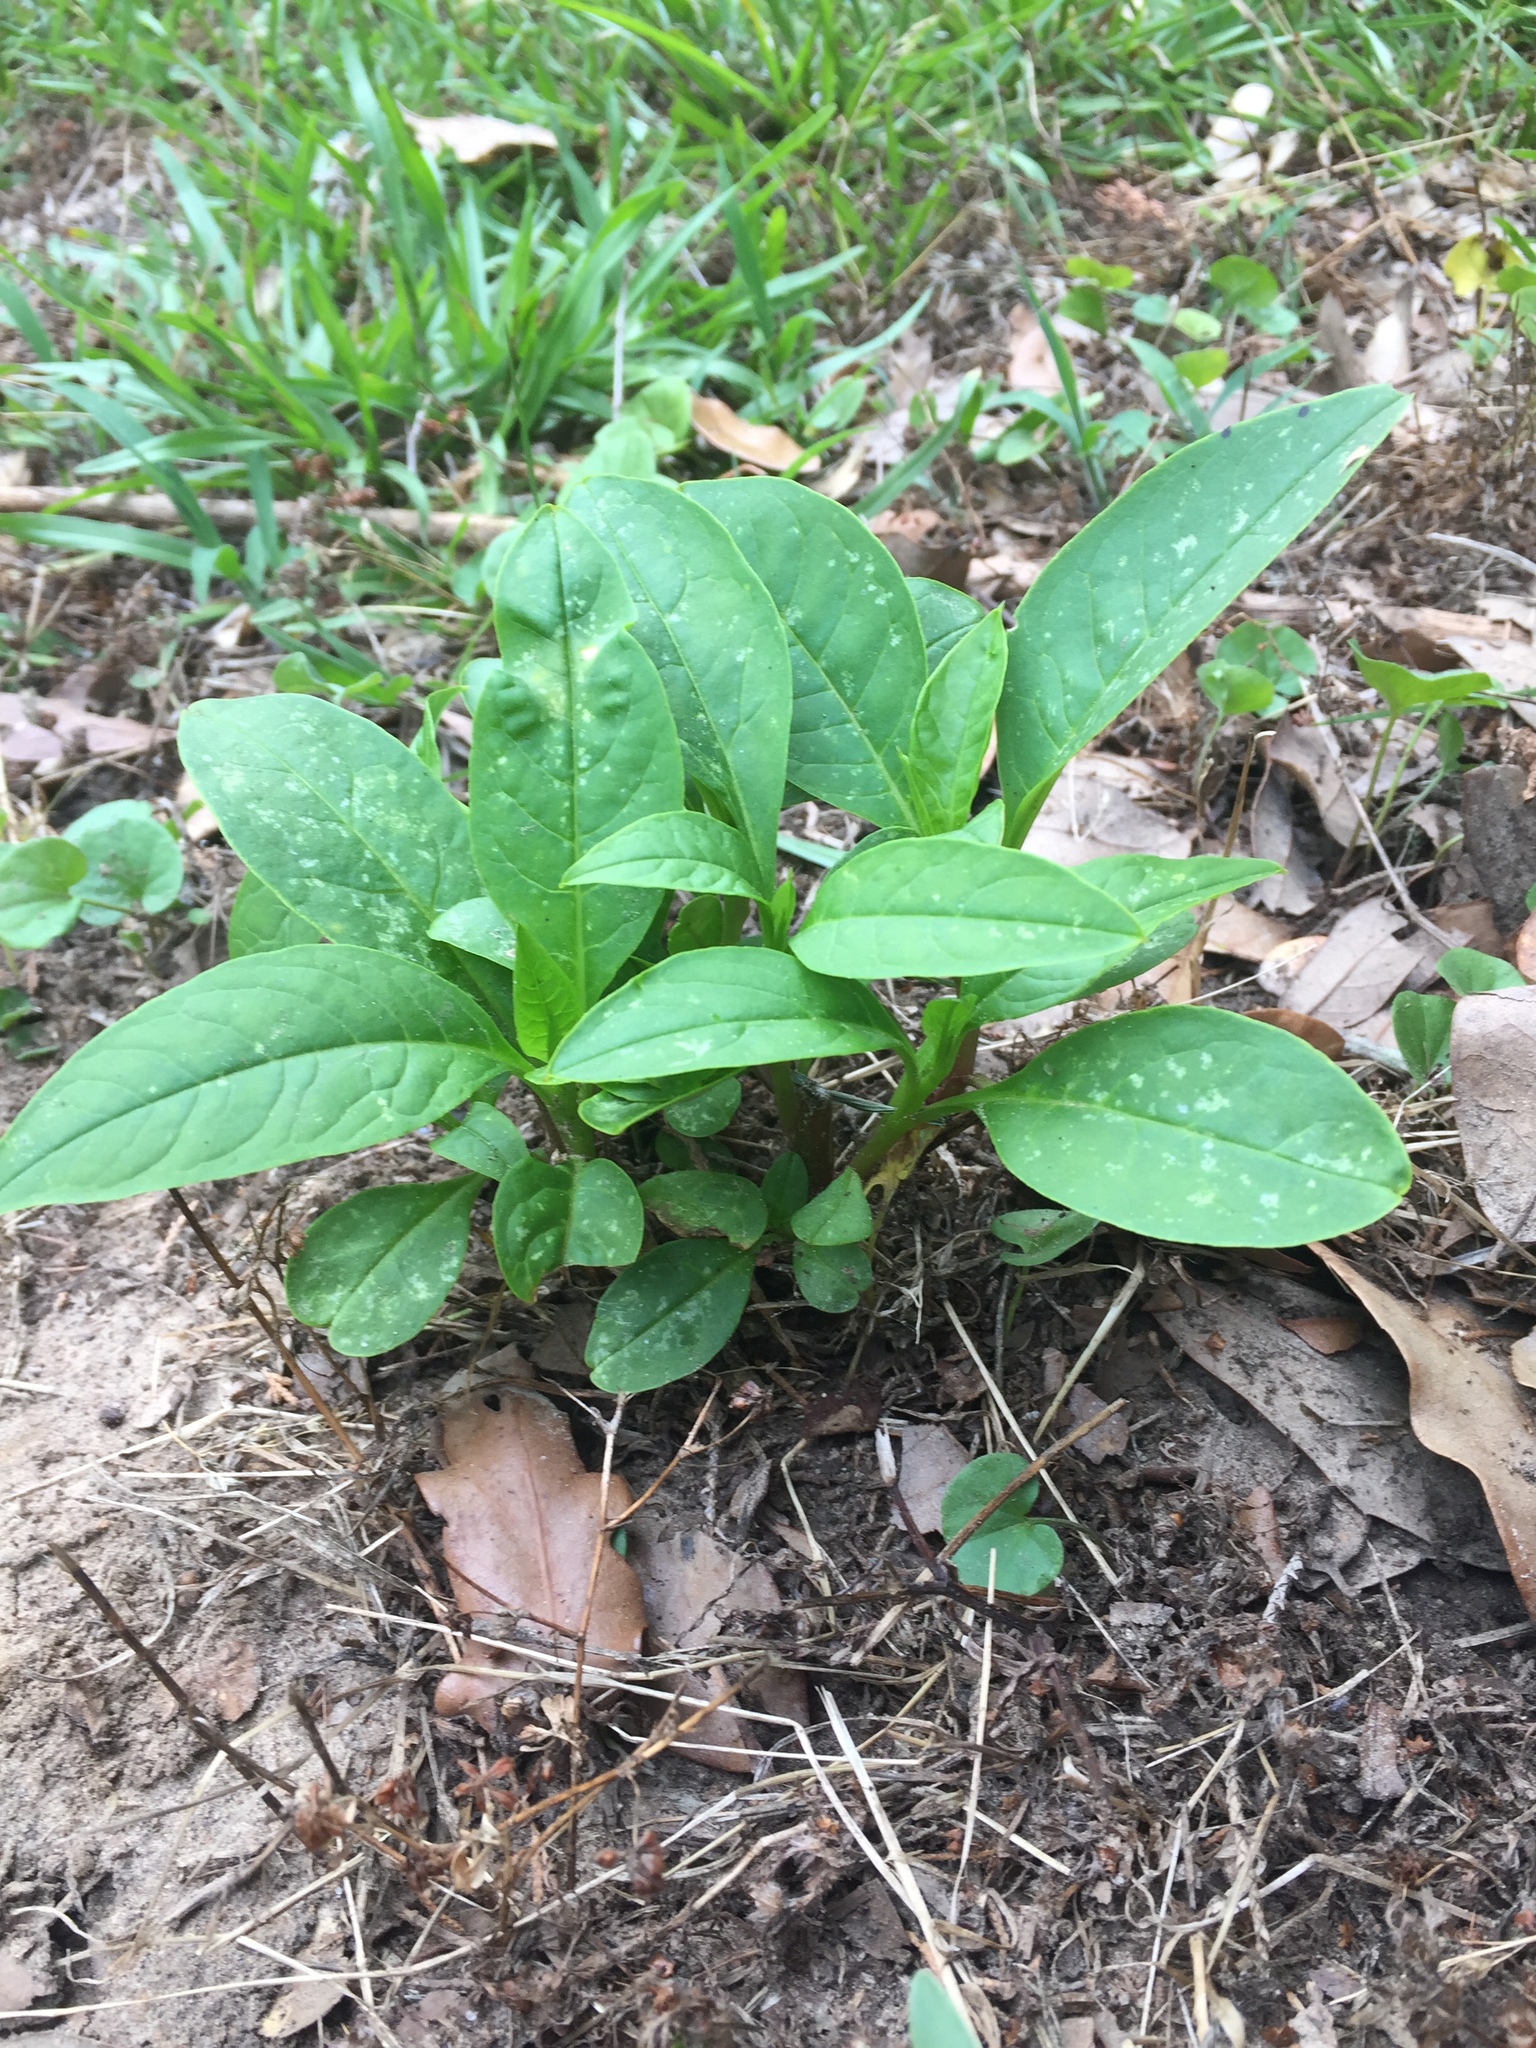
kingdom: Plantae
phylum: Tracheophyta
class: Magnoliopsida
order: Caryophyllales
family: Phytolaccaceae
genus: Phytolacca
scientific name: Phytolacca americana
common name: American pokeweed
